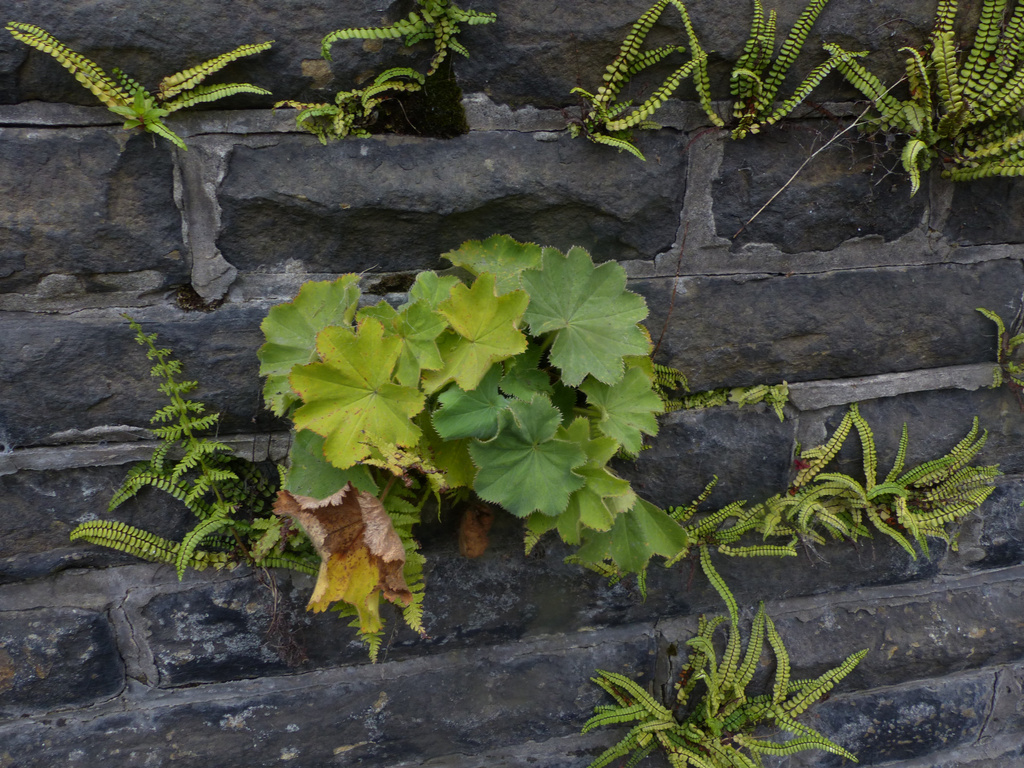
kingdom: Plantae
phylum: Tracheophyta
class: Magnoliopsida
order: Rosales
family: Rosaceae
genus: Alchemilla
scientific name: Alchemilla mollis
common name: Lady's-mantle
